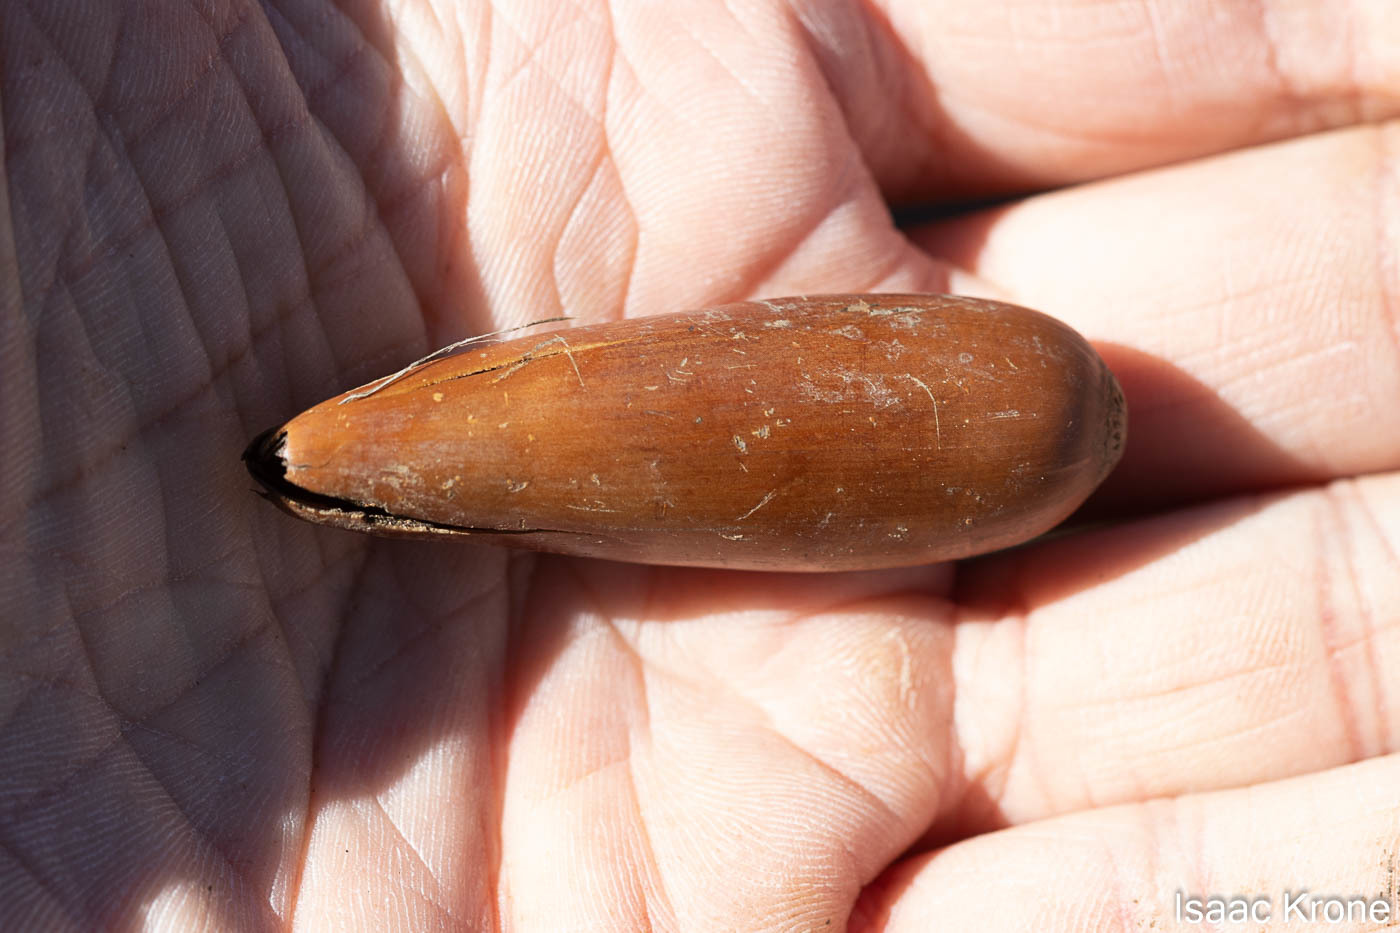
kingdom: Plantae
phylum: Tracheophyta
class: Magnoliopsida
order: Fagales
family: Fagaceae
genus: Quercus
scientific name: Quercus lobata
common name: Valley oak
